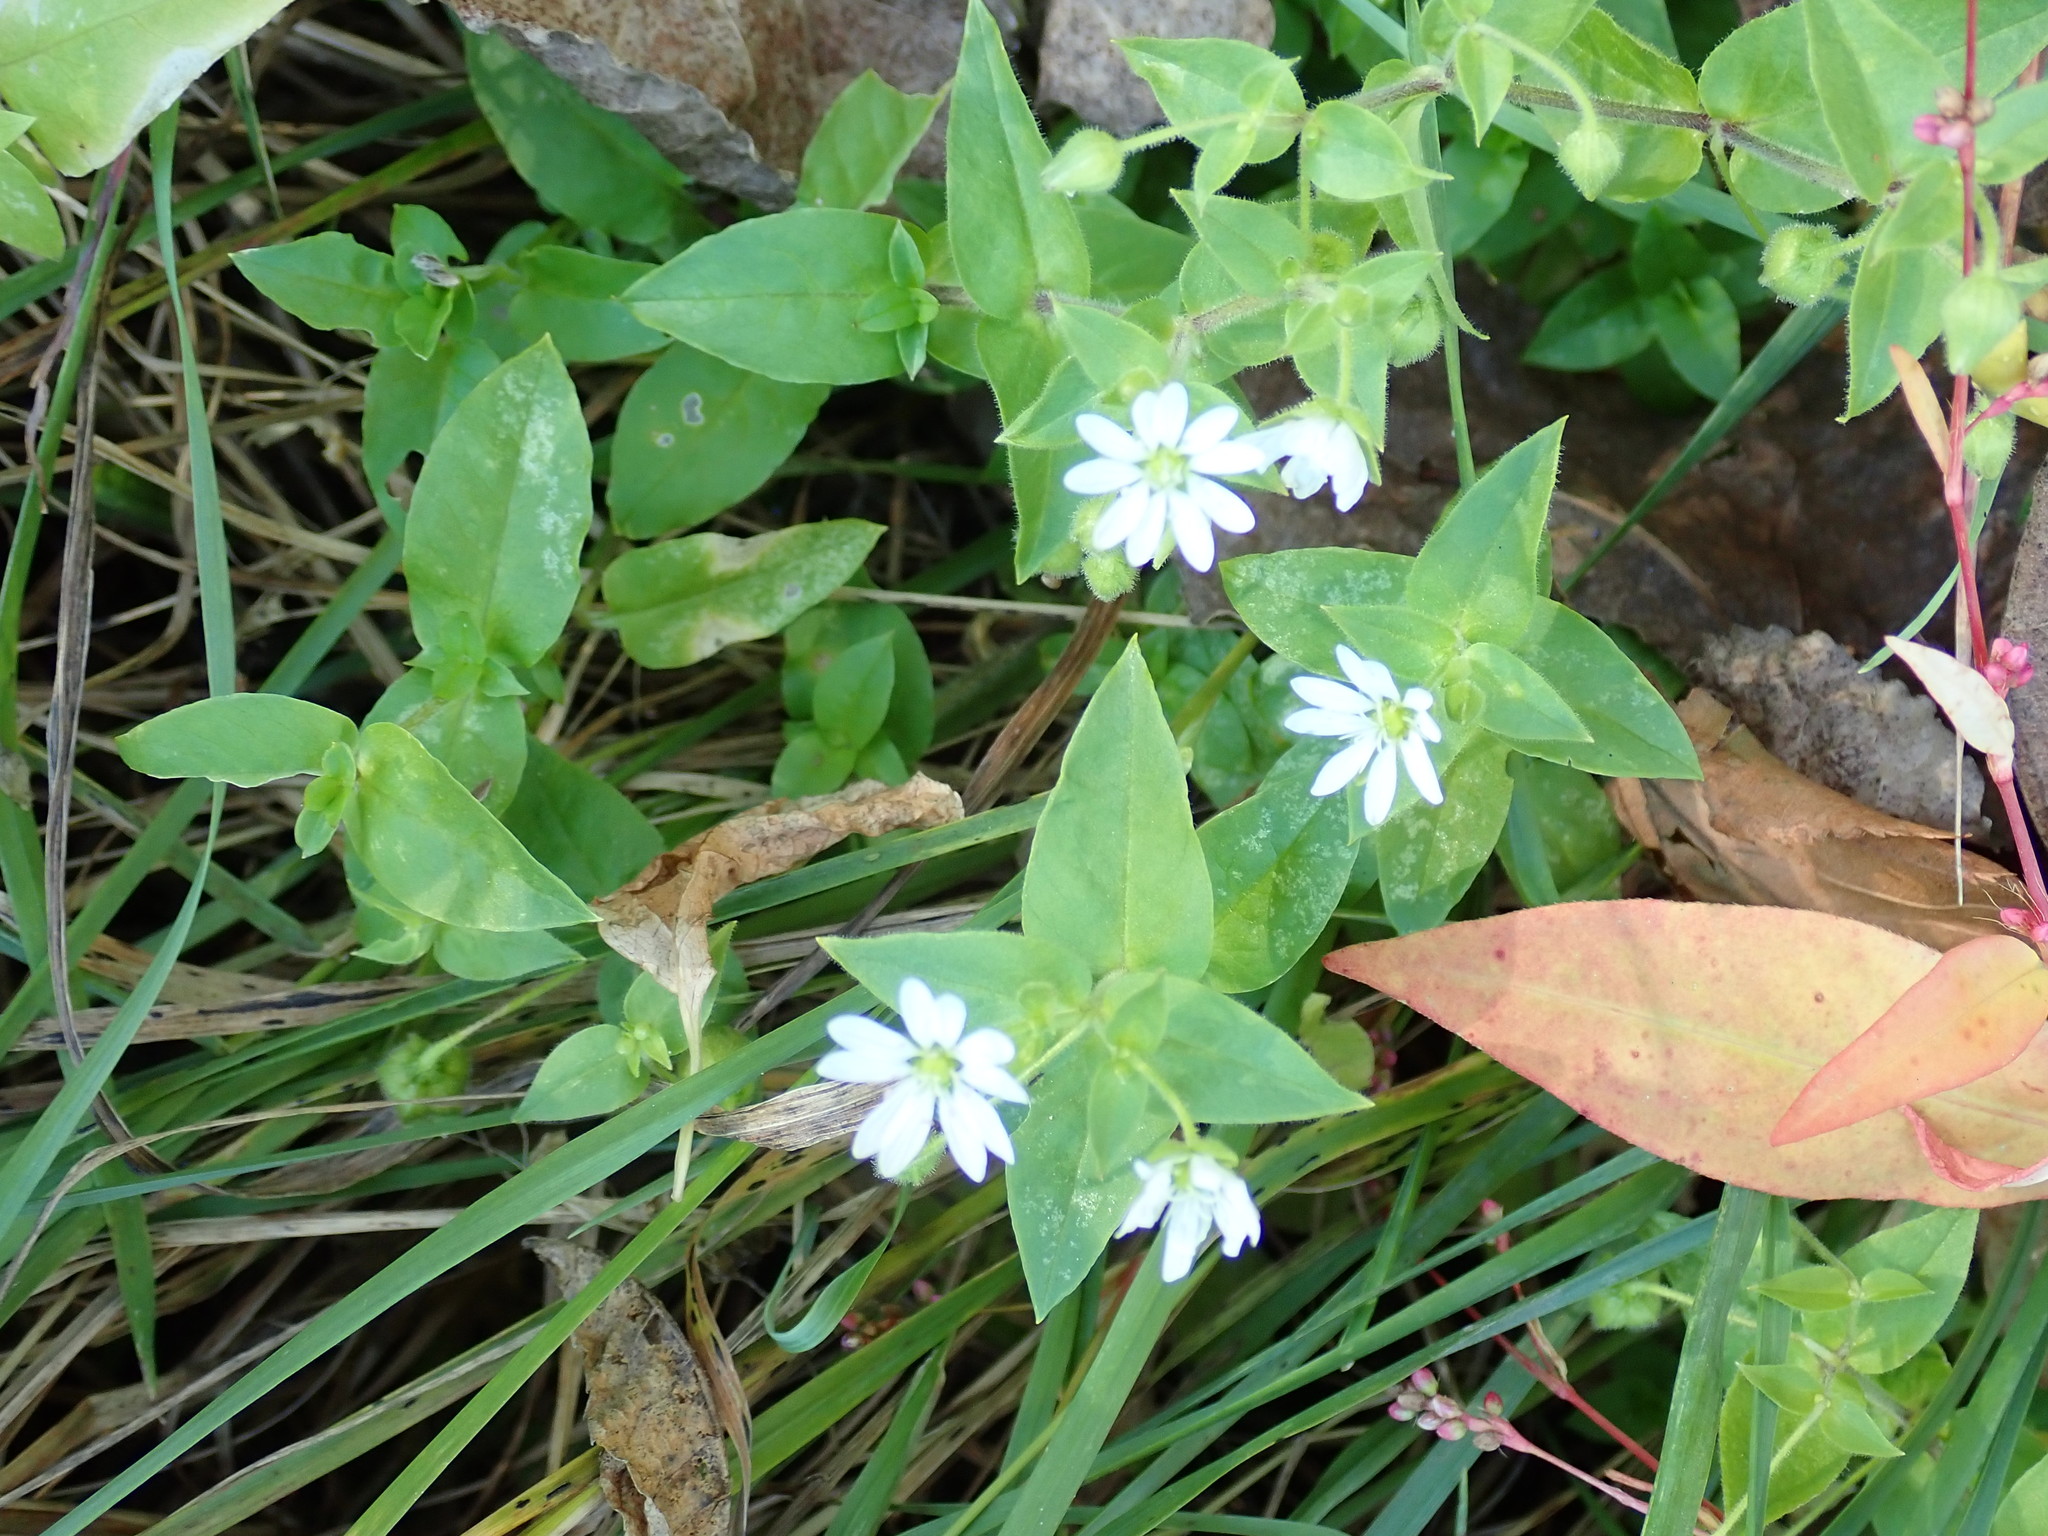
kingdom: Plantae
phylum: Tracheophyta
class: Magnoliopsida
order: Caryophyllales
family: Caryophyllaceae
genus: Stellaria
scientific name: Stellaria aquatica
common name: Water chickweed
